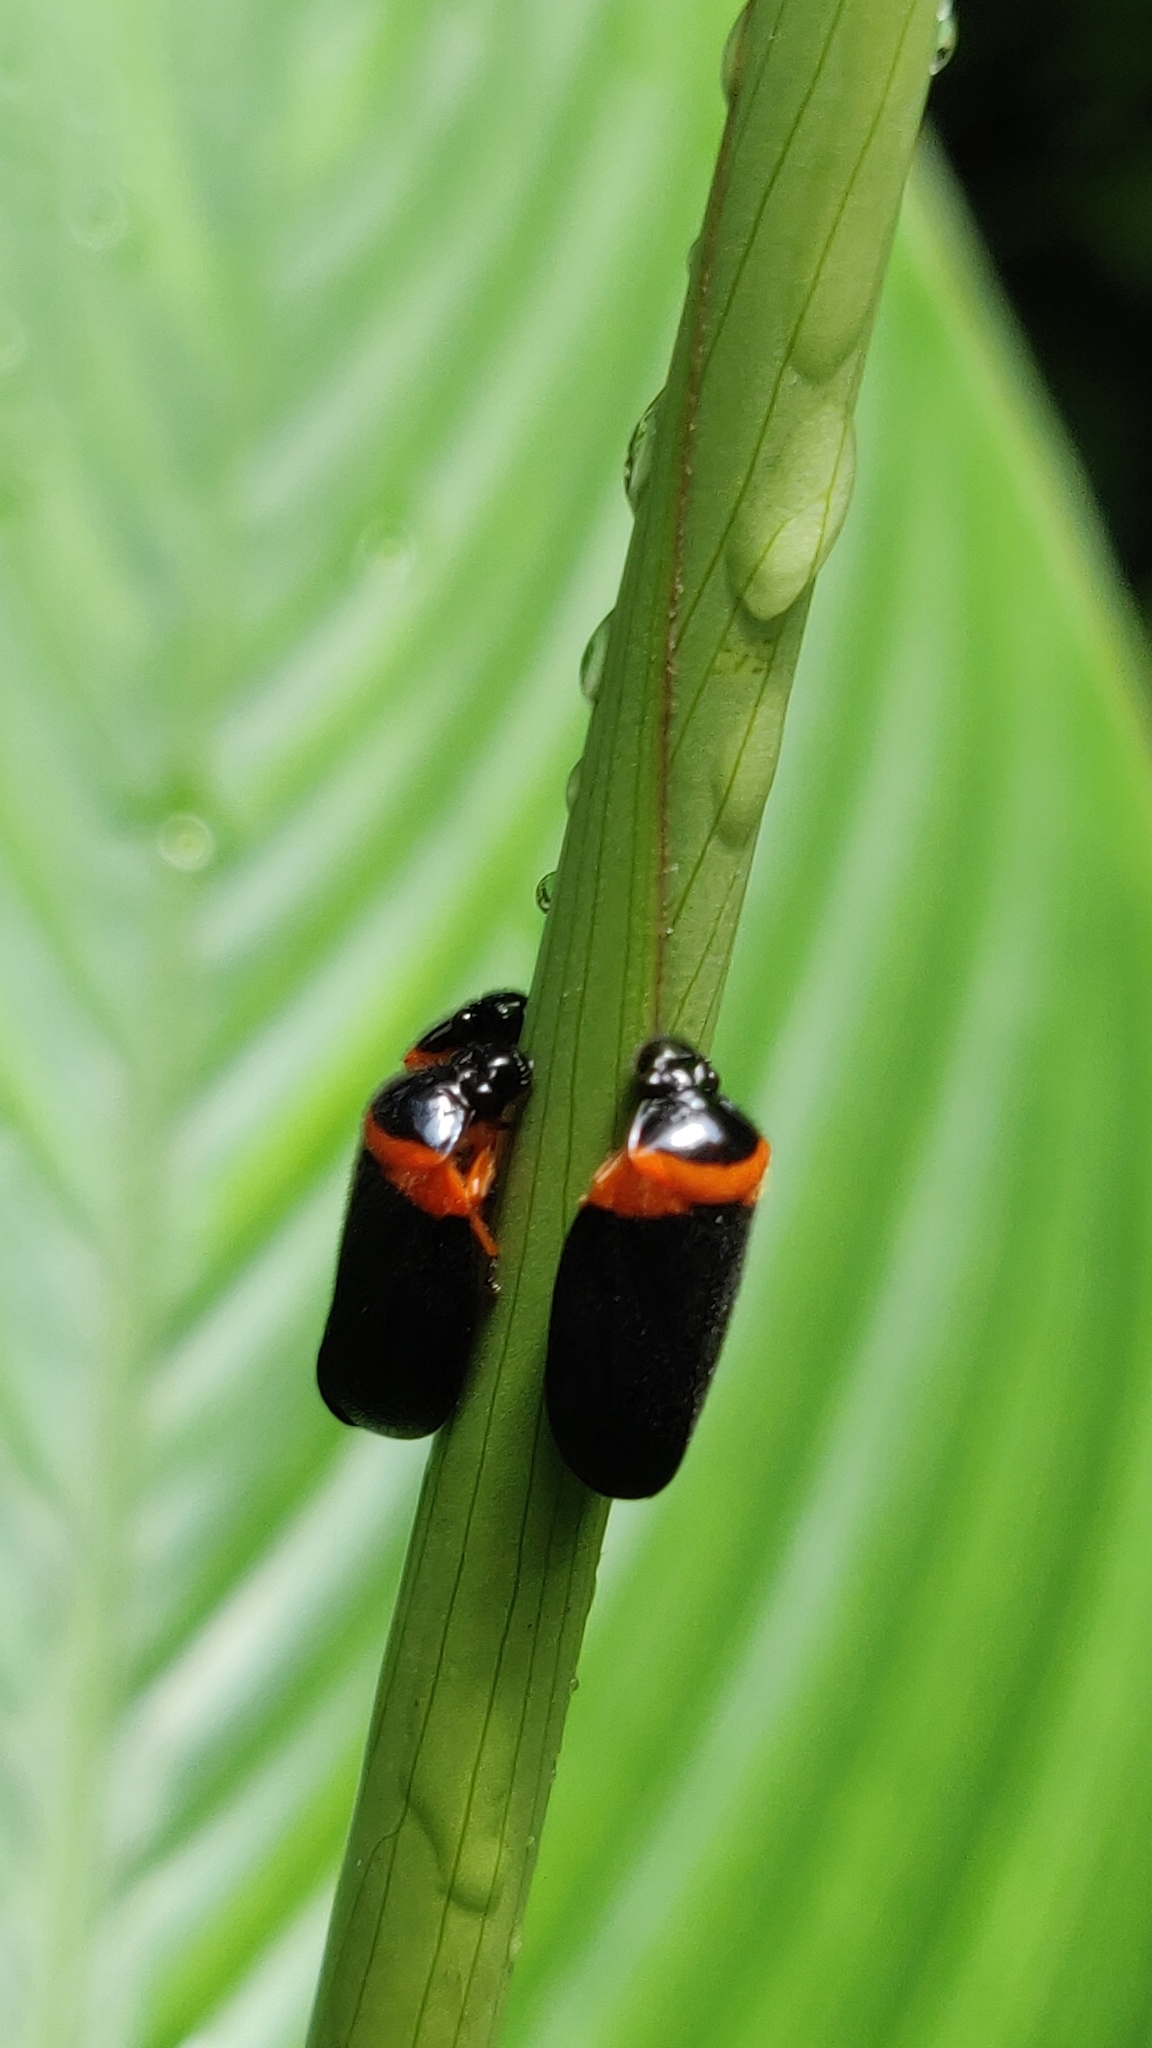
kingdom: Animalia
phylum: Arthropoda
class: Insecta
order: Hemiptera
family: Cercopidae
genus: Phymatostetha
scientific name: Phymatostetha deschampsi
